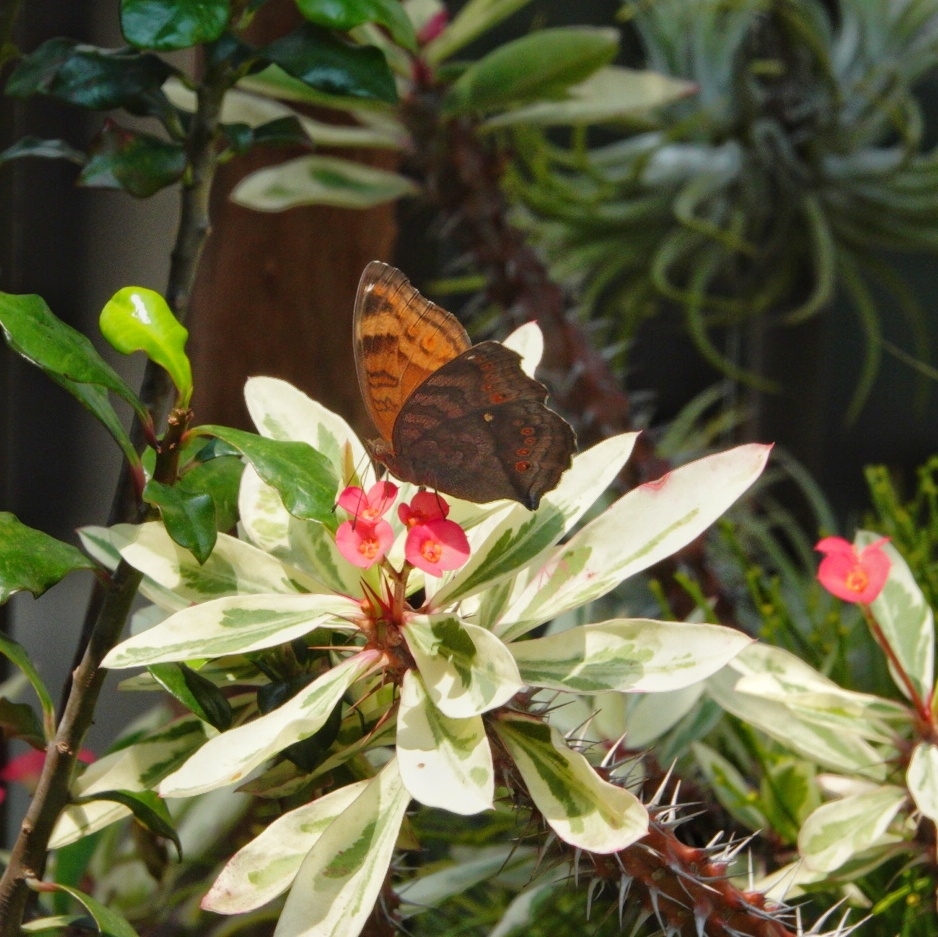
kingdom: Animalia
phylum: Arthropoda
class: Insecta
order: Lepidoptera
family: Nymphalidae
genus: Junonia
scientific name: Junonia hedonia
